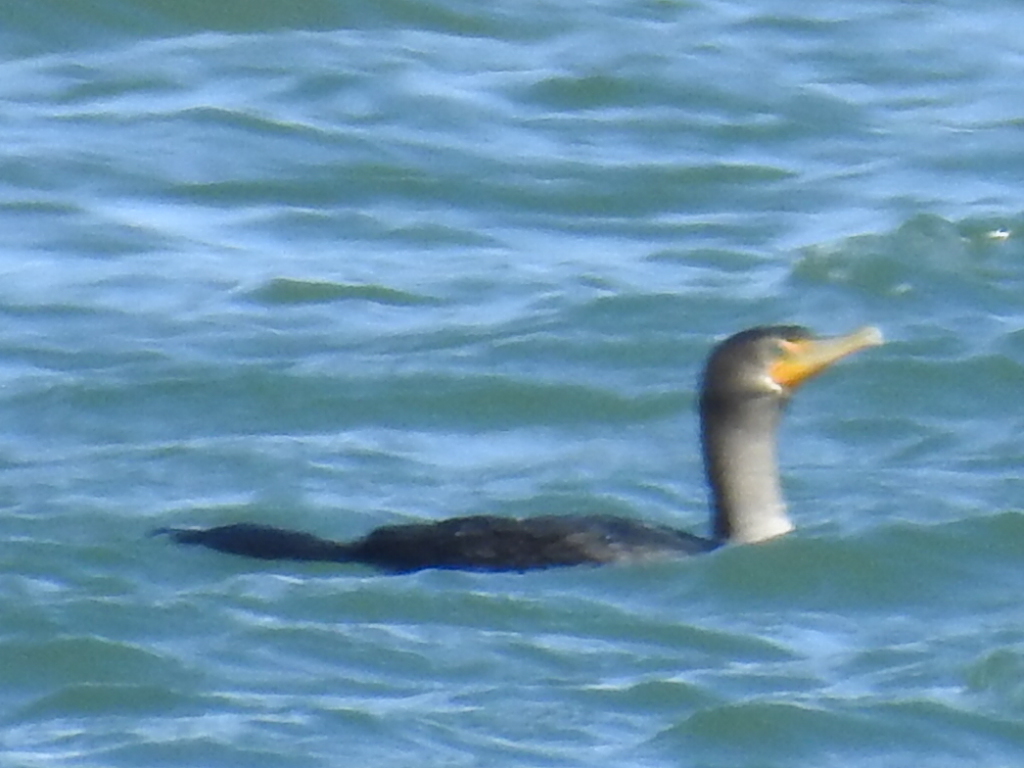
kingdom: Animalia
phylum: Chordata
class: Aves
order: Suliformes
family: Phalacrocoracidae
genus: Phalacrocorax
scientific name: Phalacrocorax auritus
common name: Double-crested cormorant
